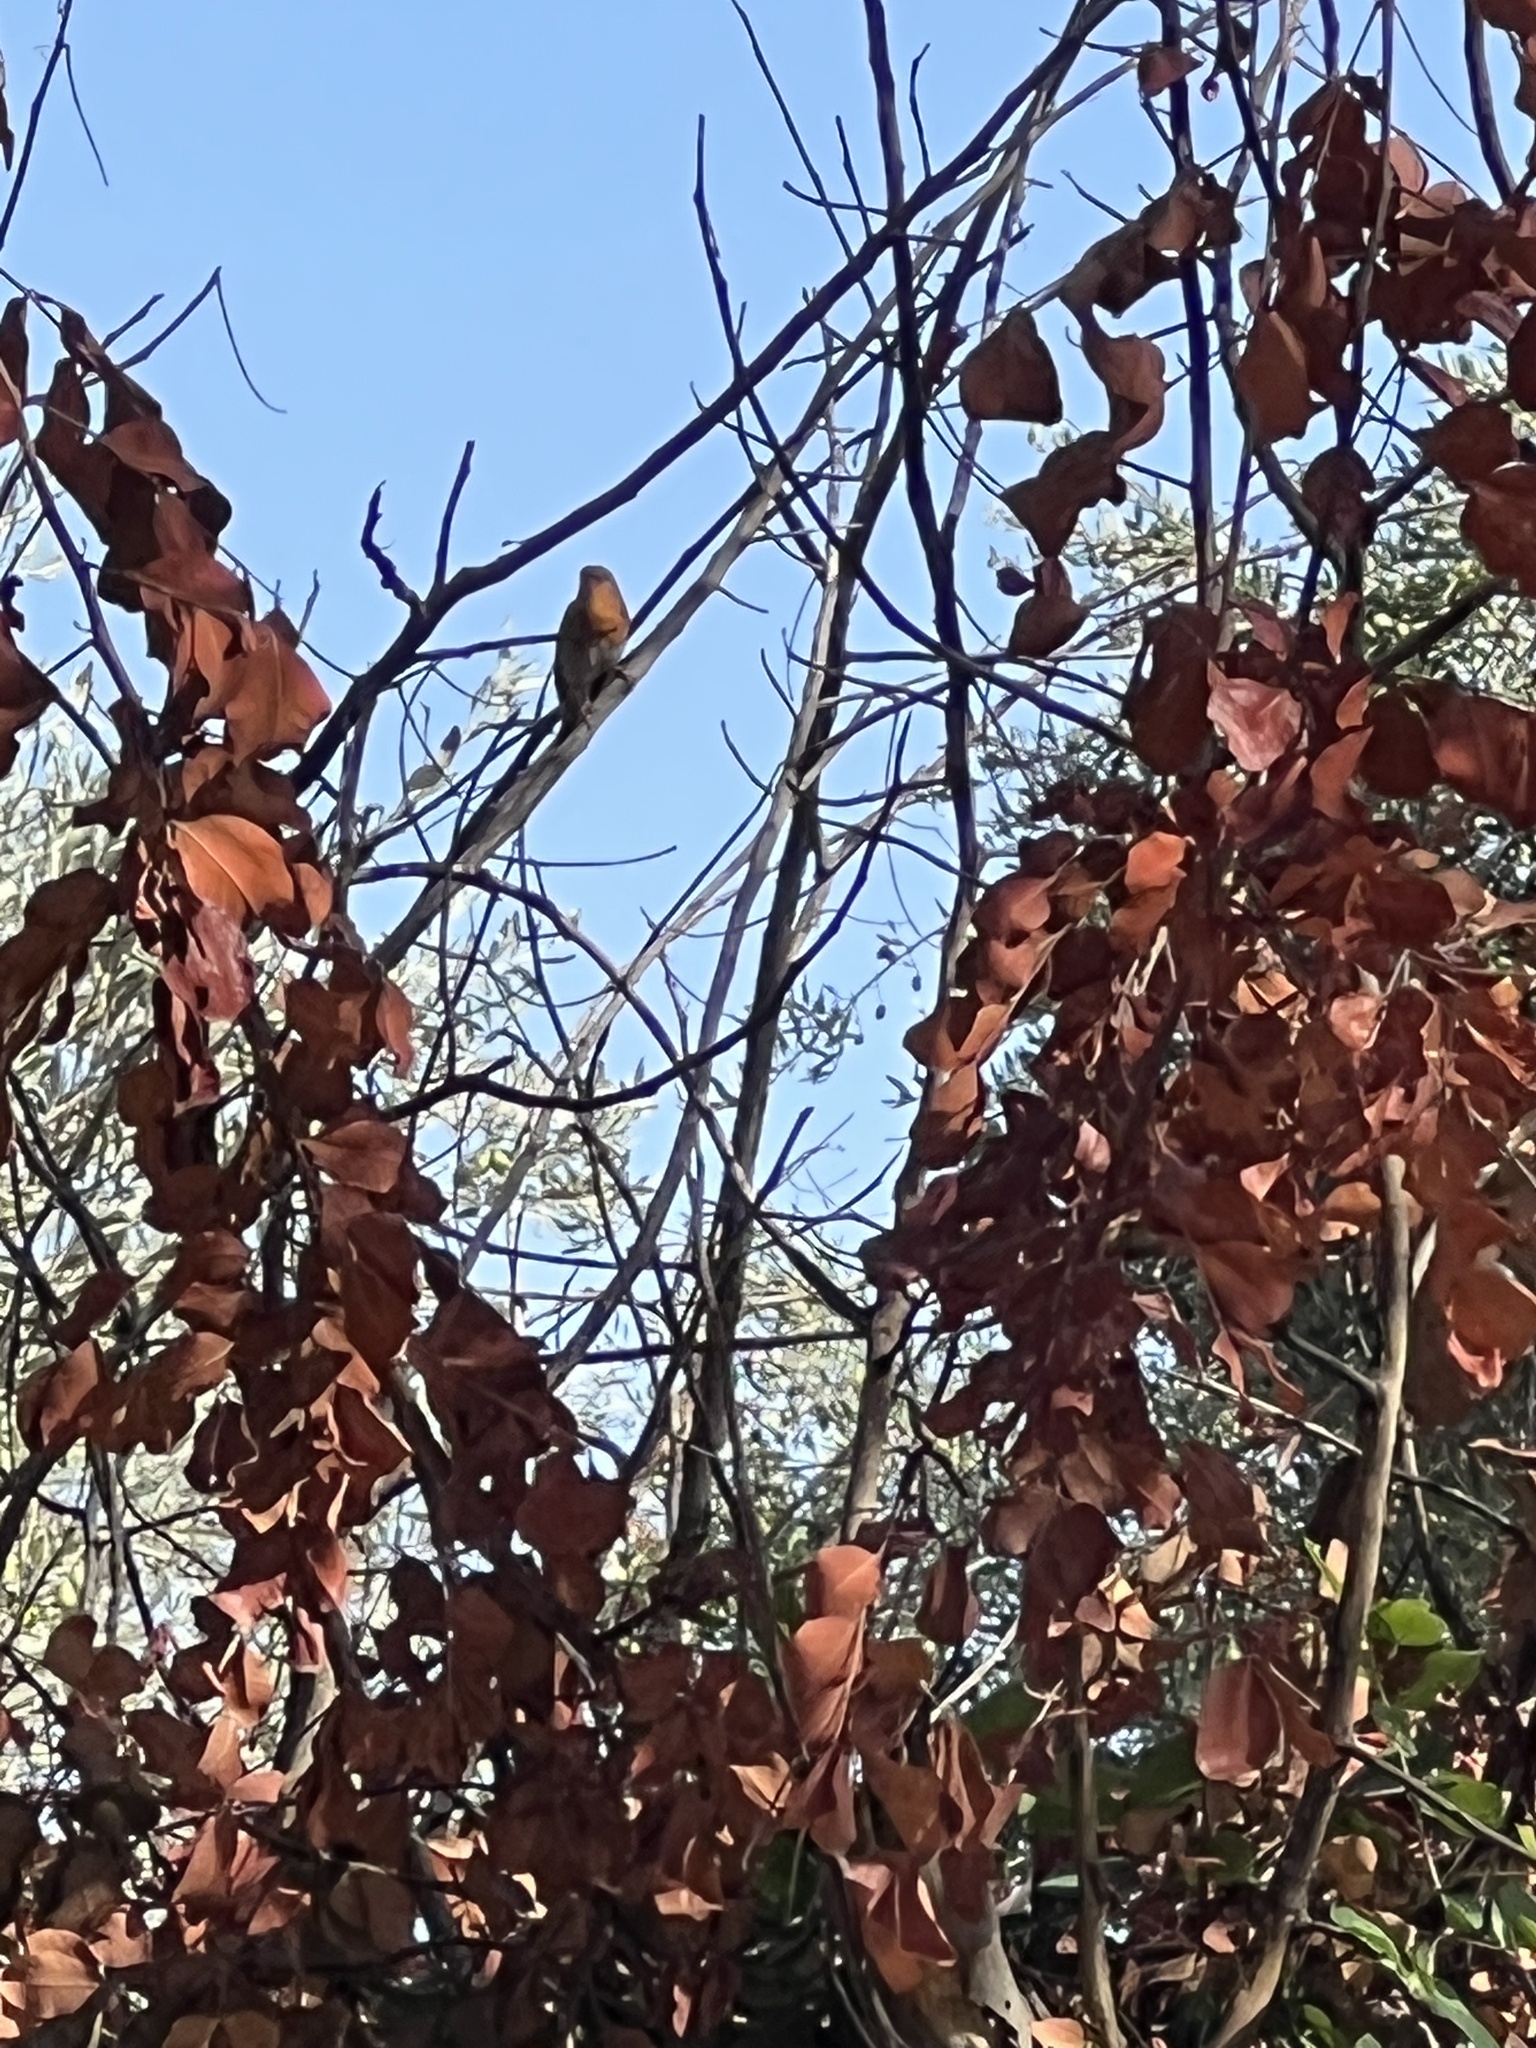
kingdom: Animalia
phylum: Chordata
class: Aves
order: Passeriformes
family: Muscicapidae
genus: Erithacus
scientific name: Erithacus rubecula
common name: European robin
